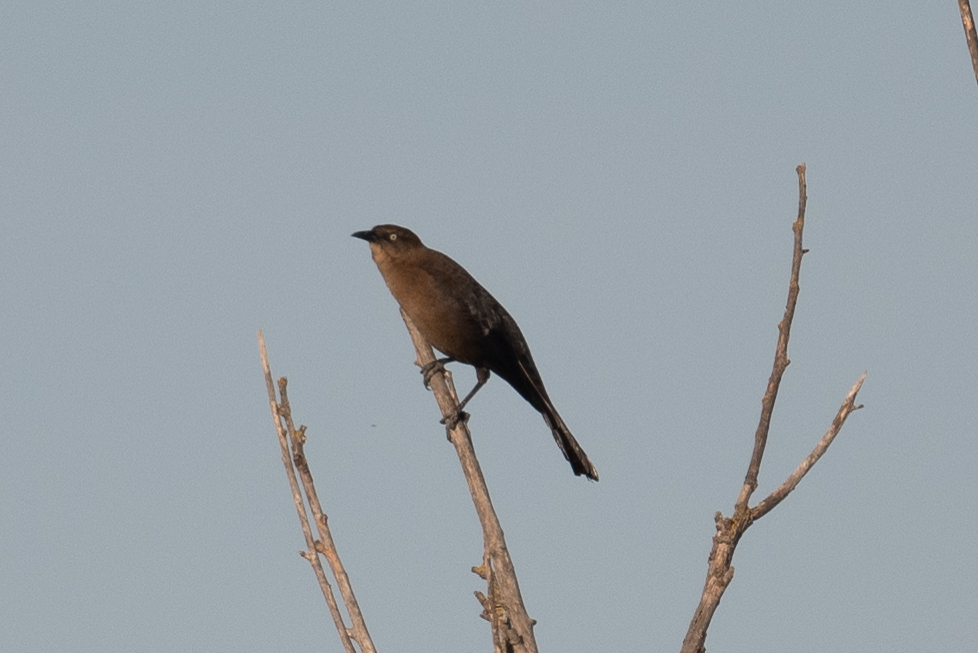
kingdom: Animalia
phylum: Chordata
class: Aves
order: Passeriformes
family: Icteridae
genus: Quiscalus
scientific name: Quiscalus mexicanus
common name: Great-tailed grackle
